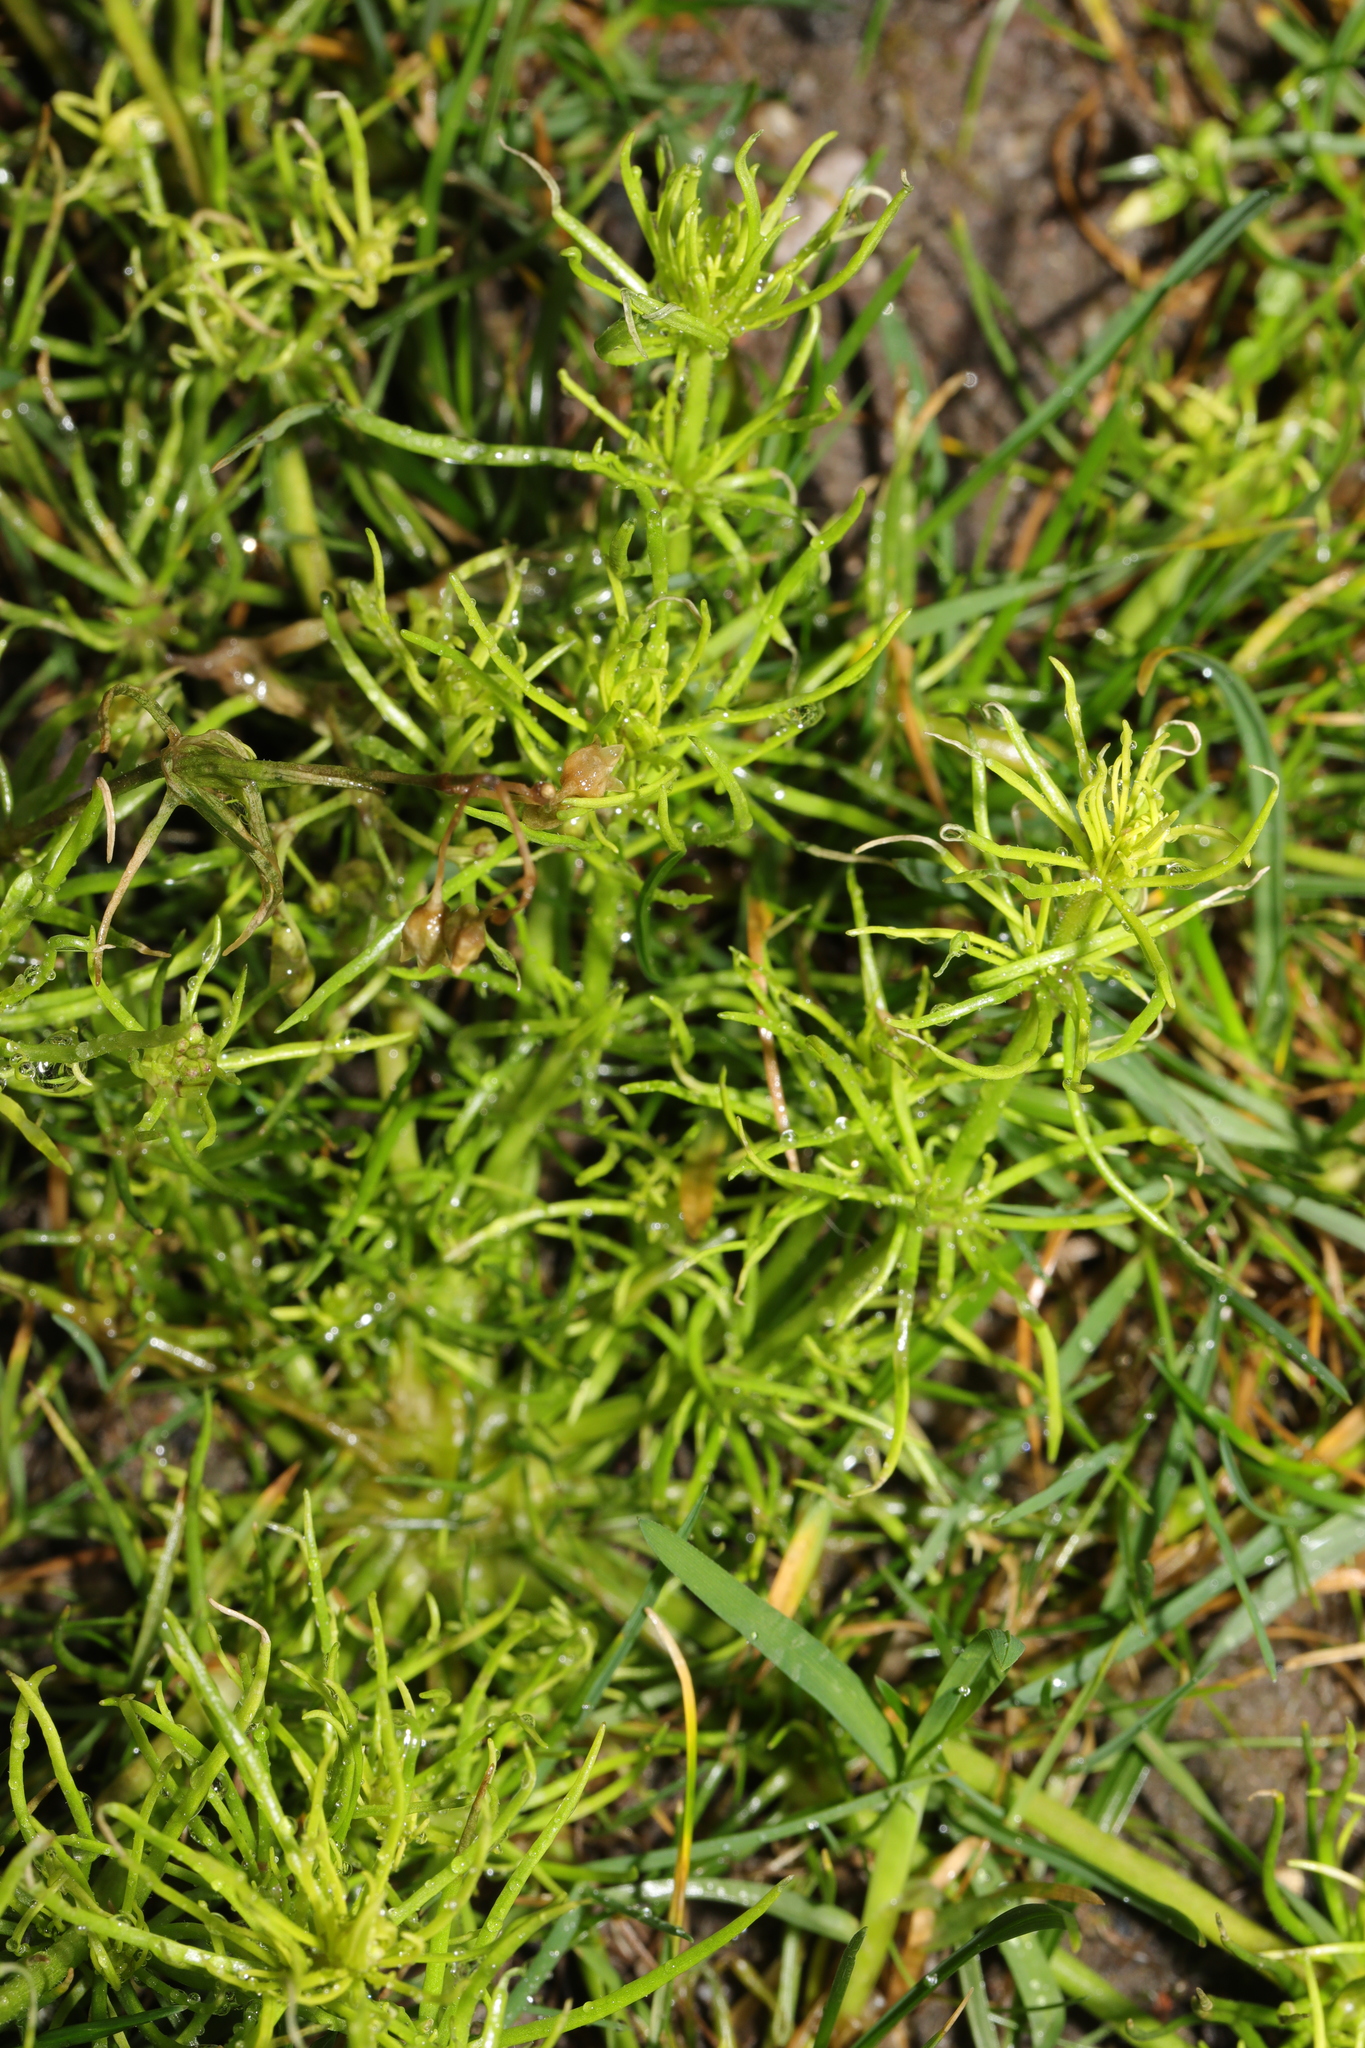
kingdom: Plantae
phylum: Tracheophyta
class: Magnoliopsida
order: Caryophyllales
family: Caryophyllaceae
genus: Spergula
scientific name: Spergula arvensis
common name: Corn spurrey
